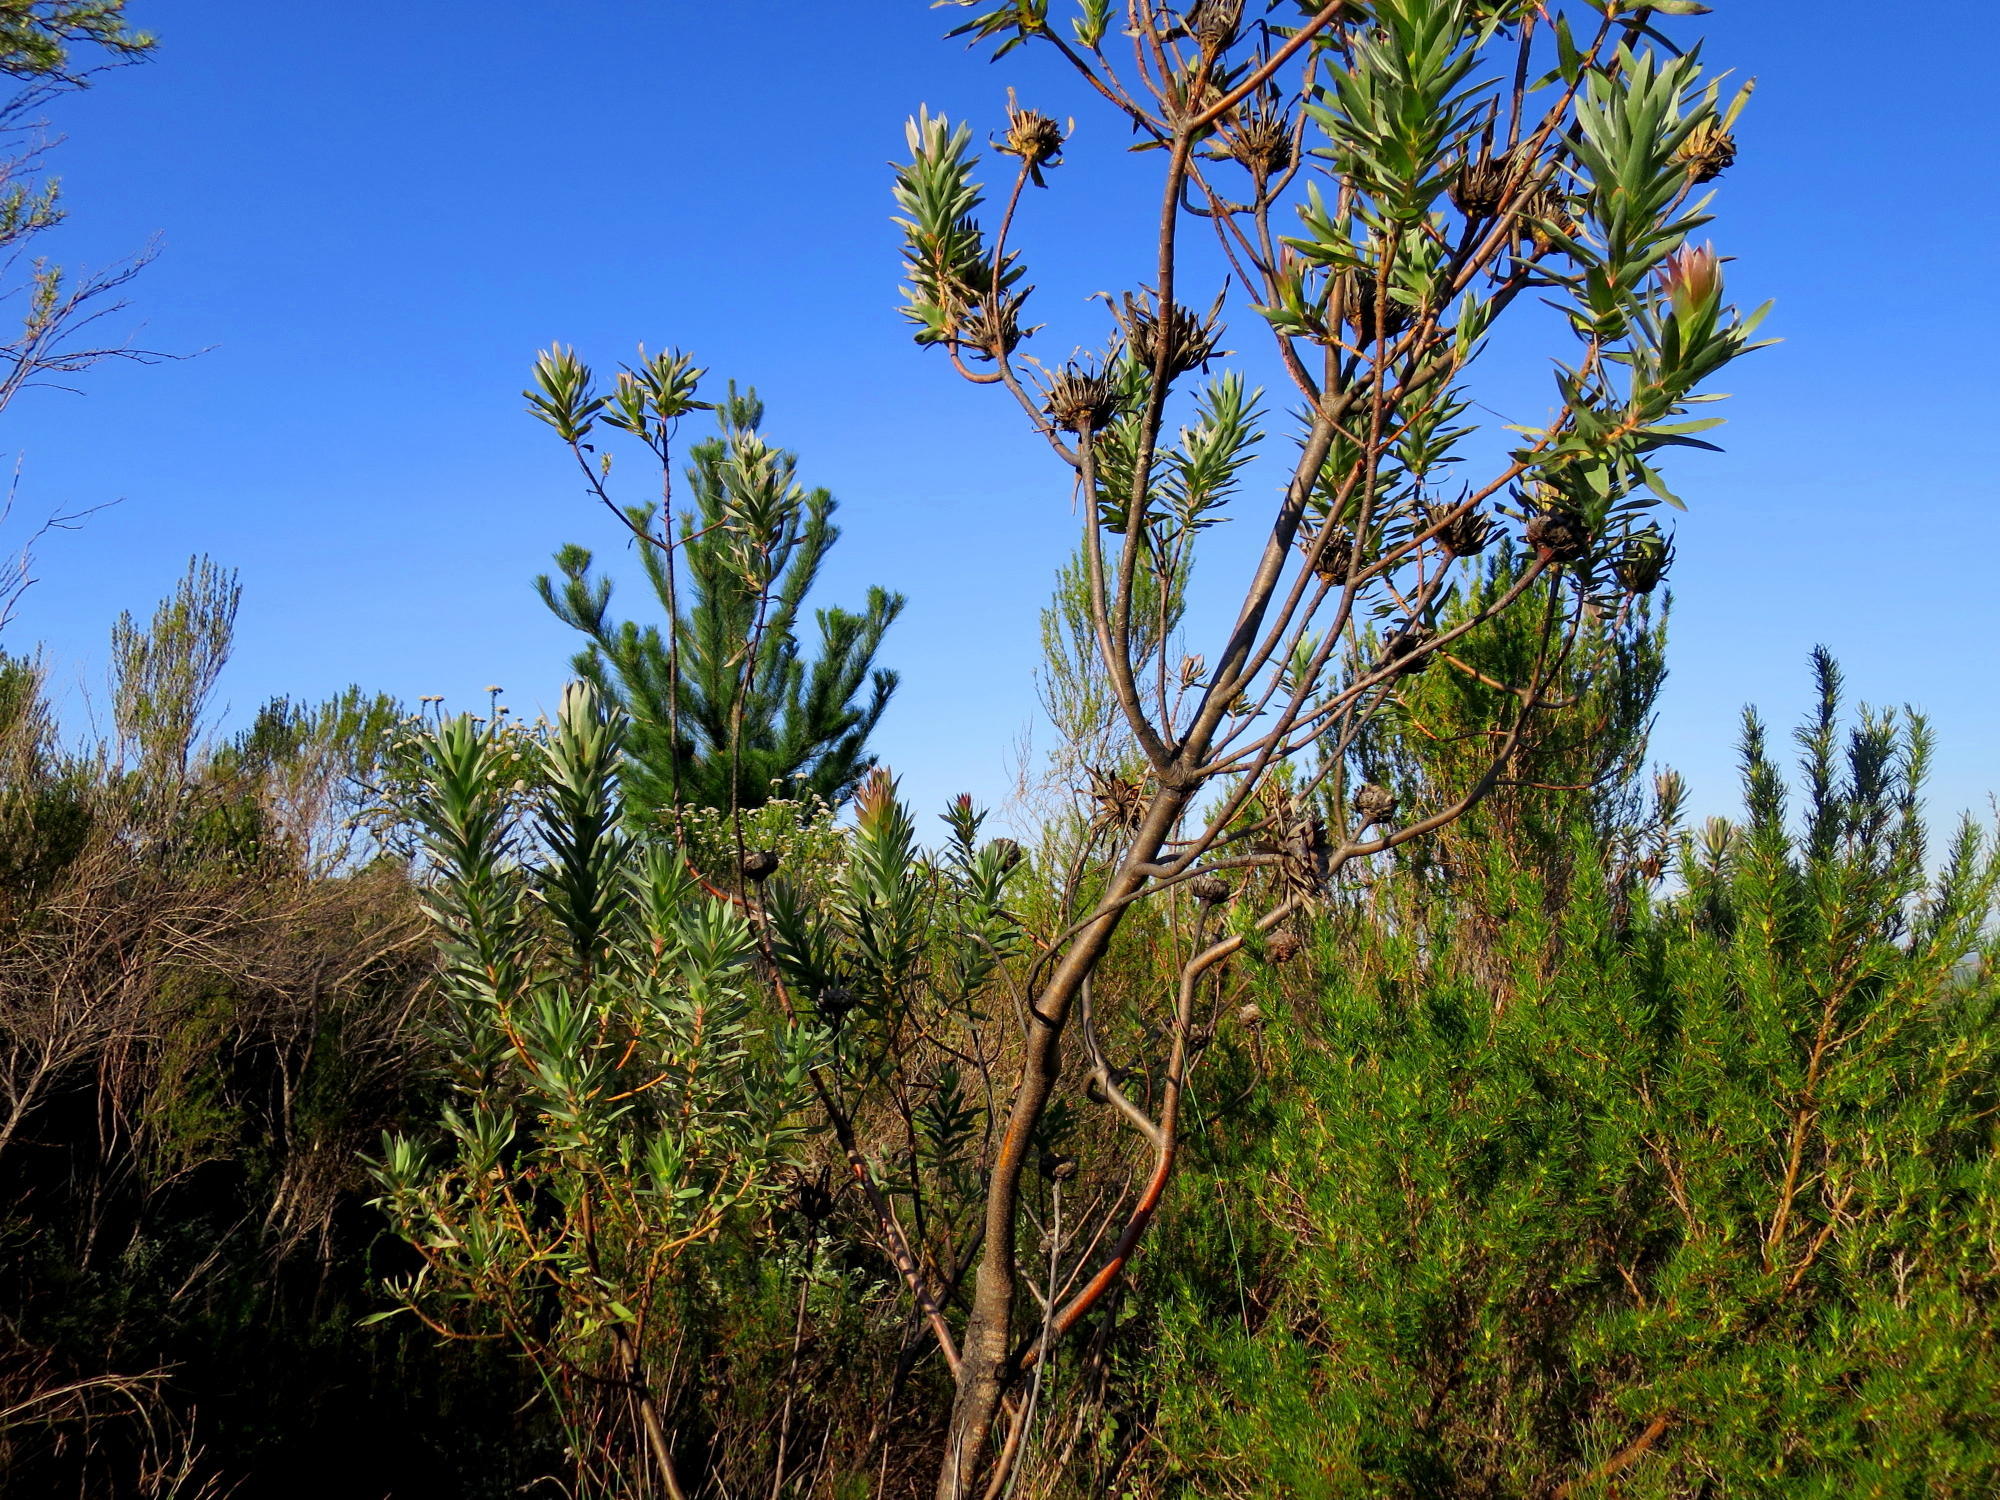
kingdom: Plantae
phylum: Tracheophyta
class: Magnoliopsida
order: Proteales
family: Proteaceae
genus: Protea
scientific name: Protea coronata
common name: Green sugarbush
